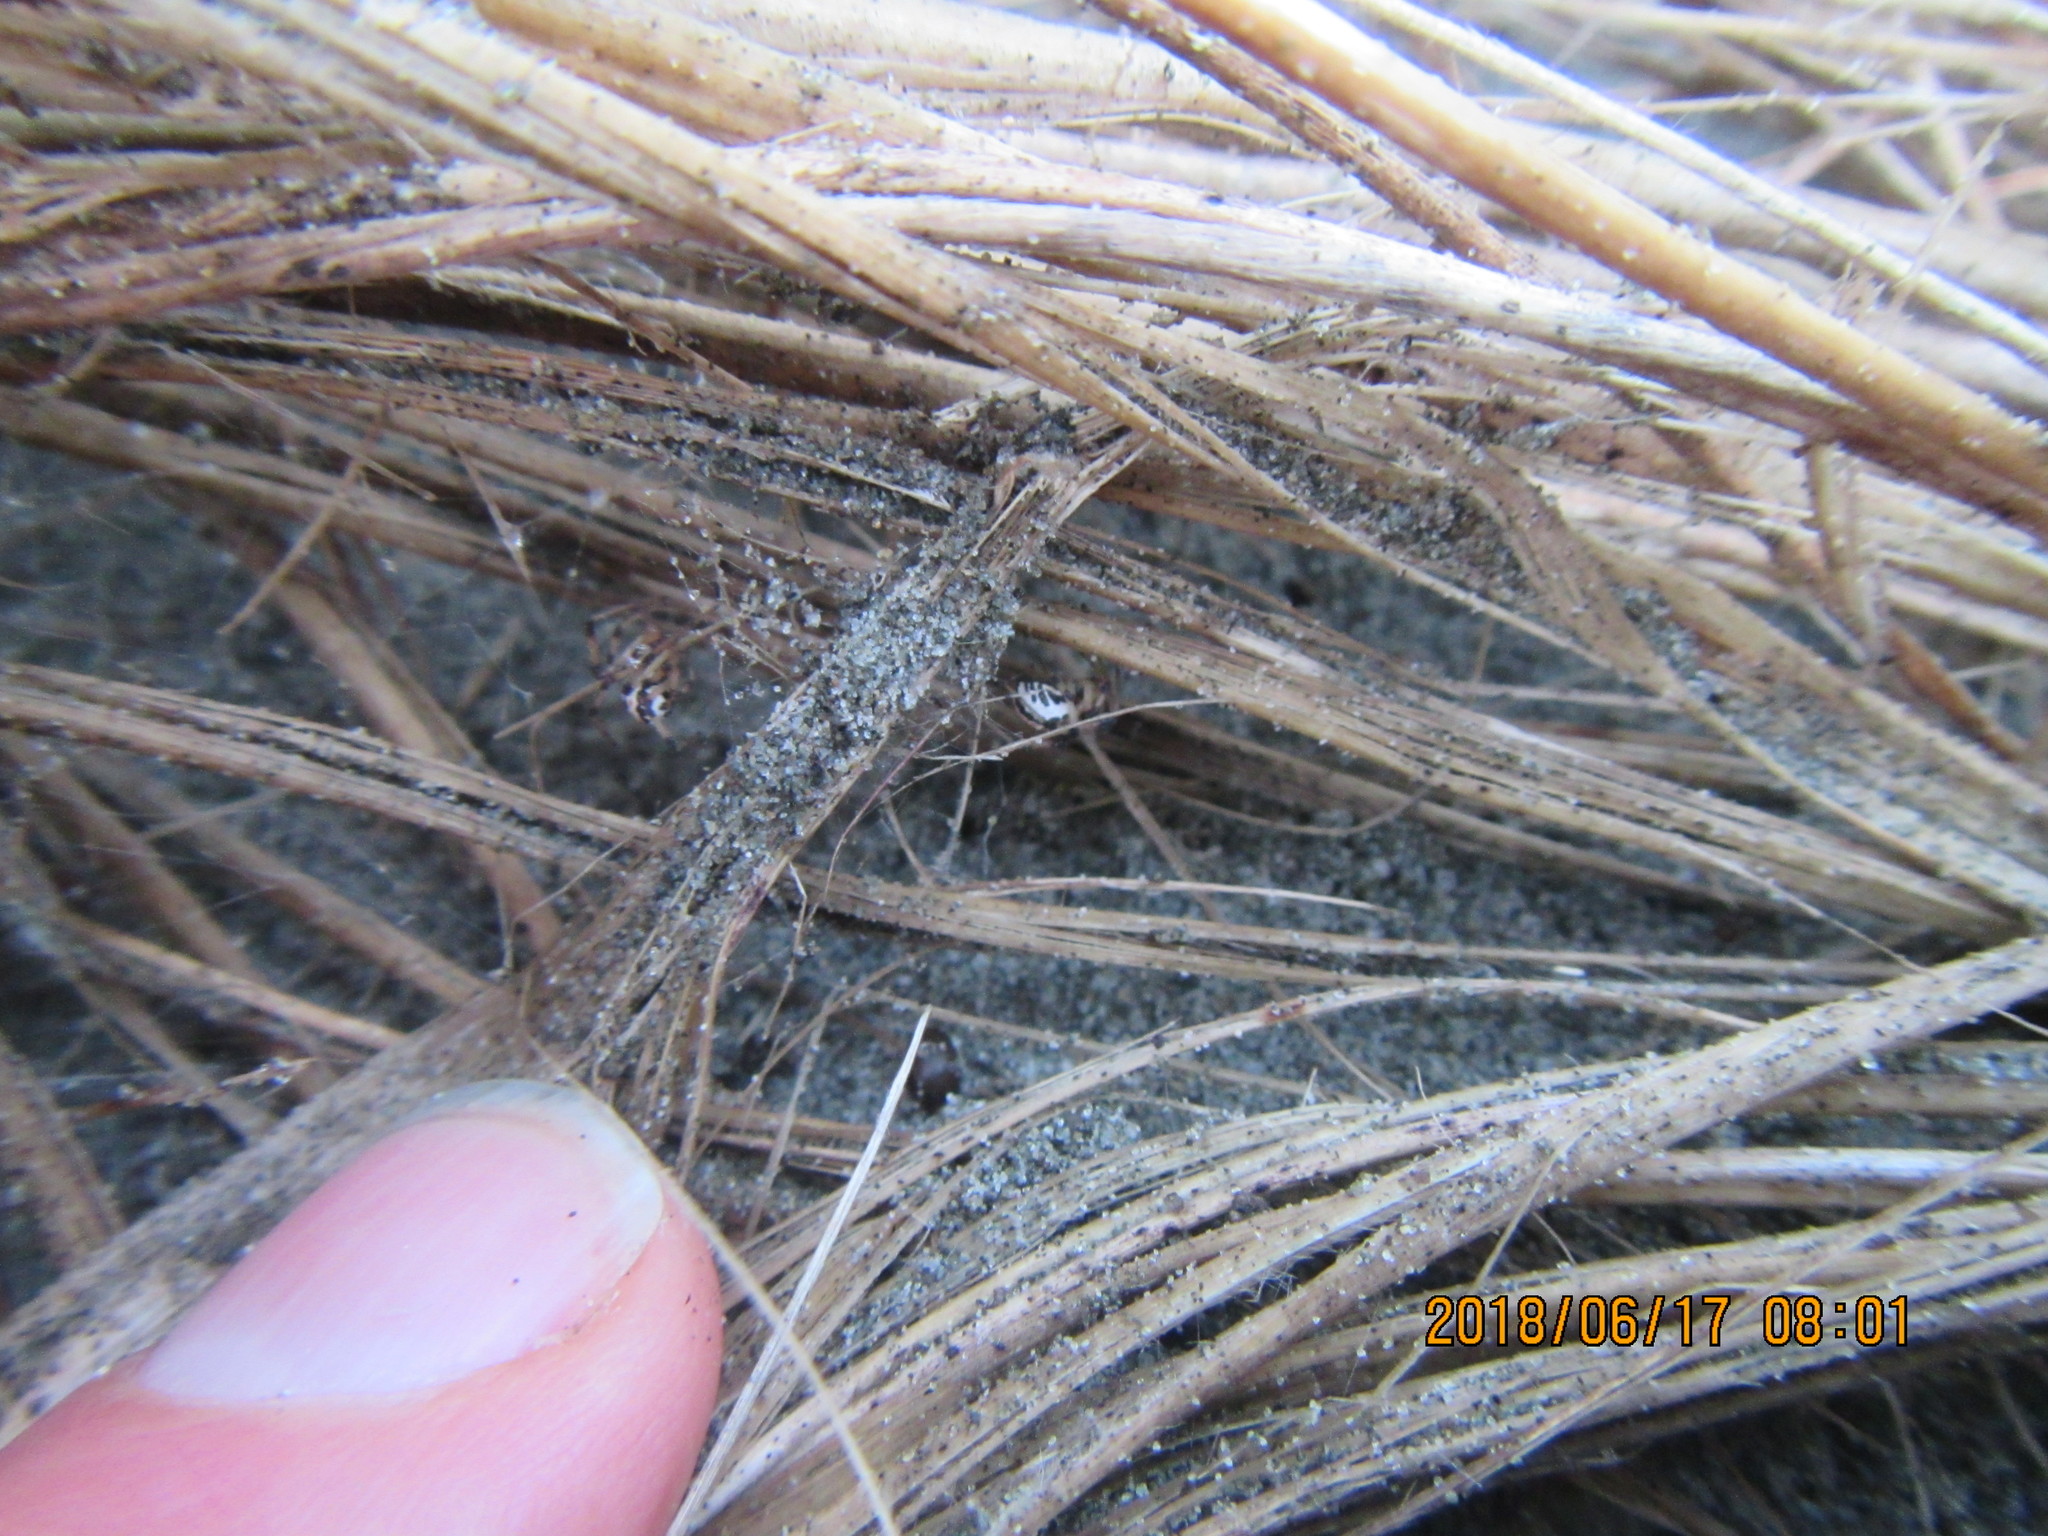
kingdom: Animalia
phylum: Arthropoda
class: Arachnida
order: Araneae
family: Theridiidae
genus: Latrodectus
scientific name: Latrodectus katipo
